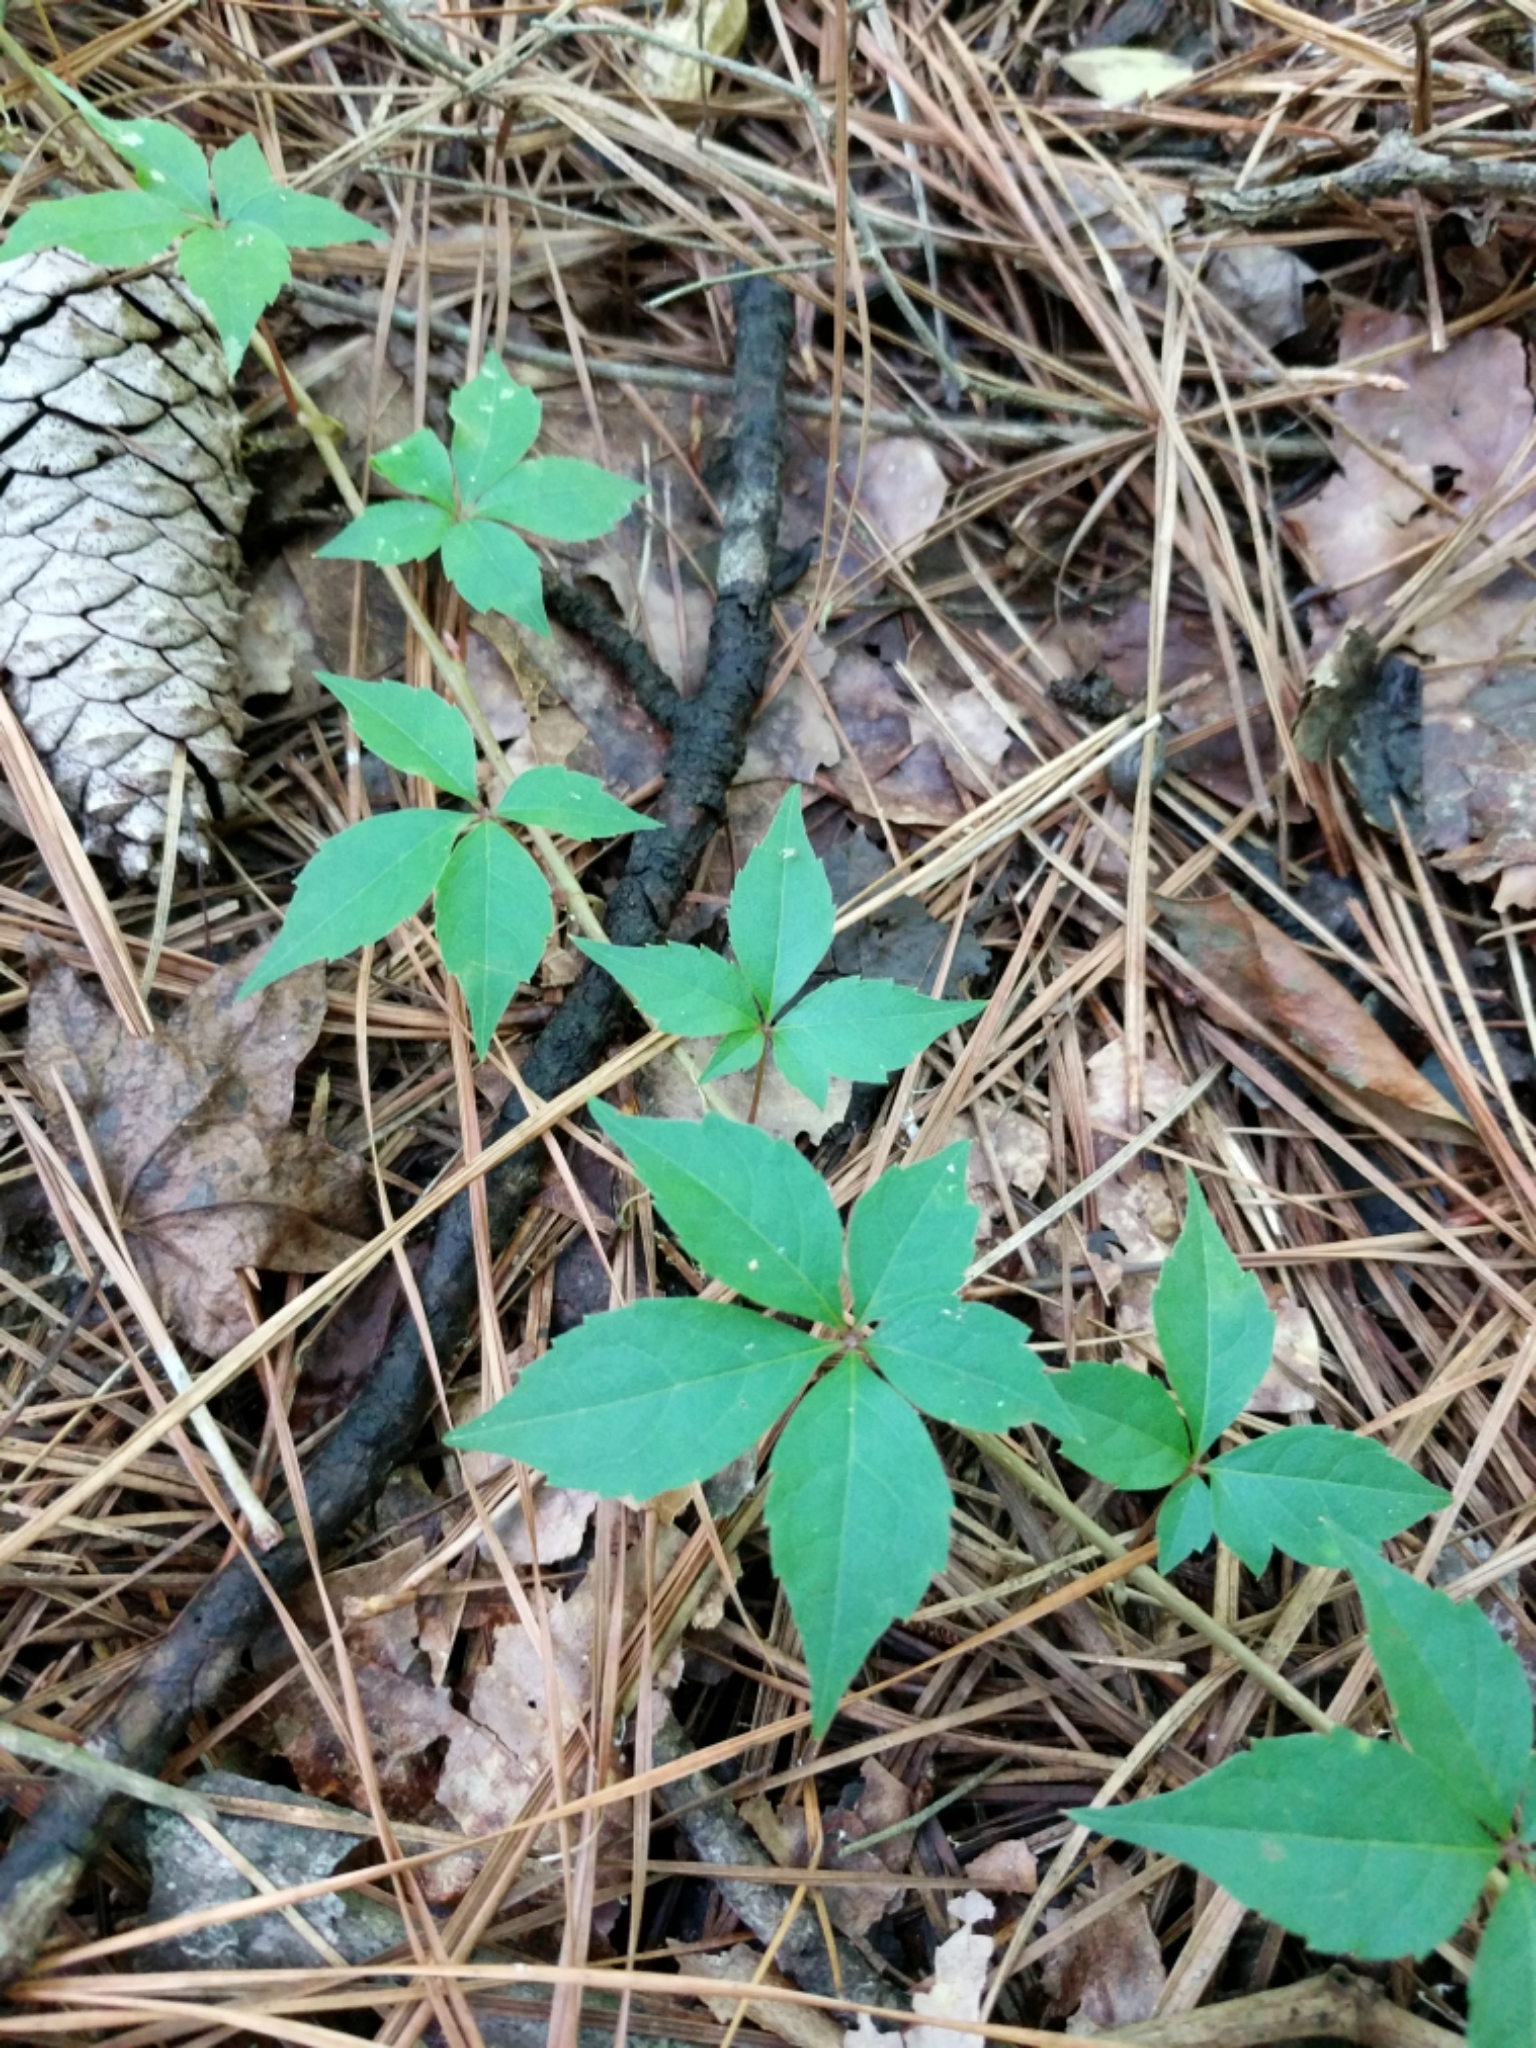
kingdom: Plantae
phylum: Tracheophyta
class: Magnoliopsida
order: Vitales
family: Vitaceae
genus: Parthenocissus
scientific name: Parthenocissus quinquefolia
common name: Virginia-creeper
